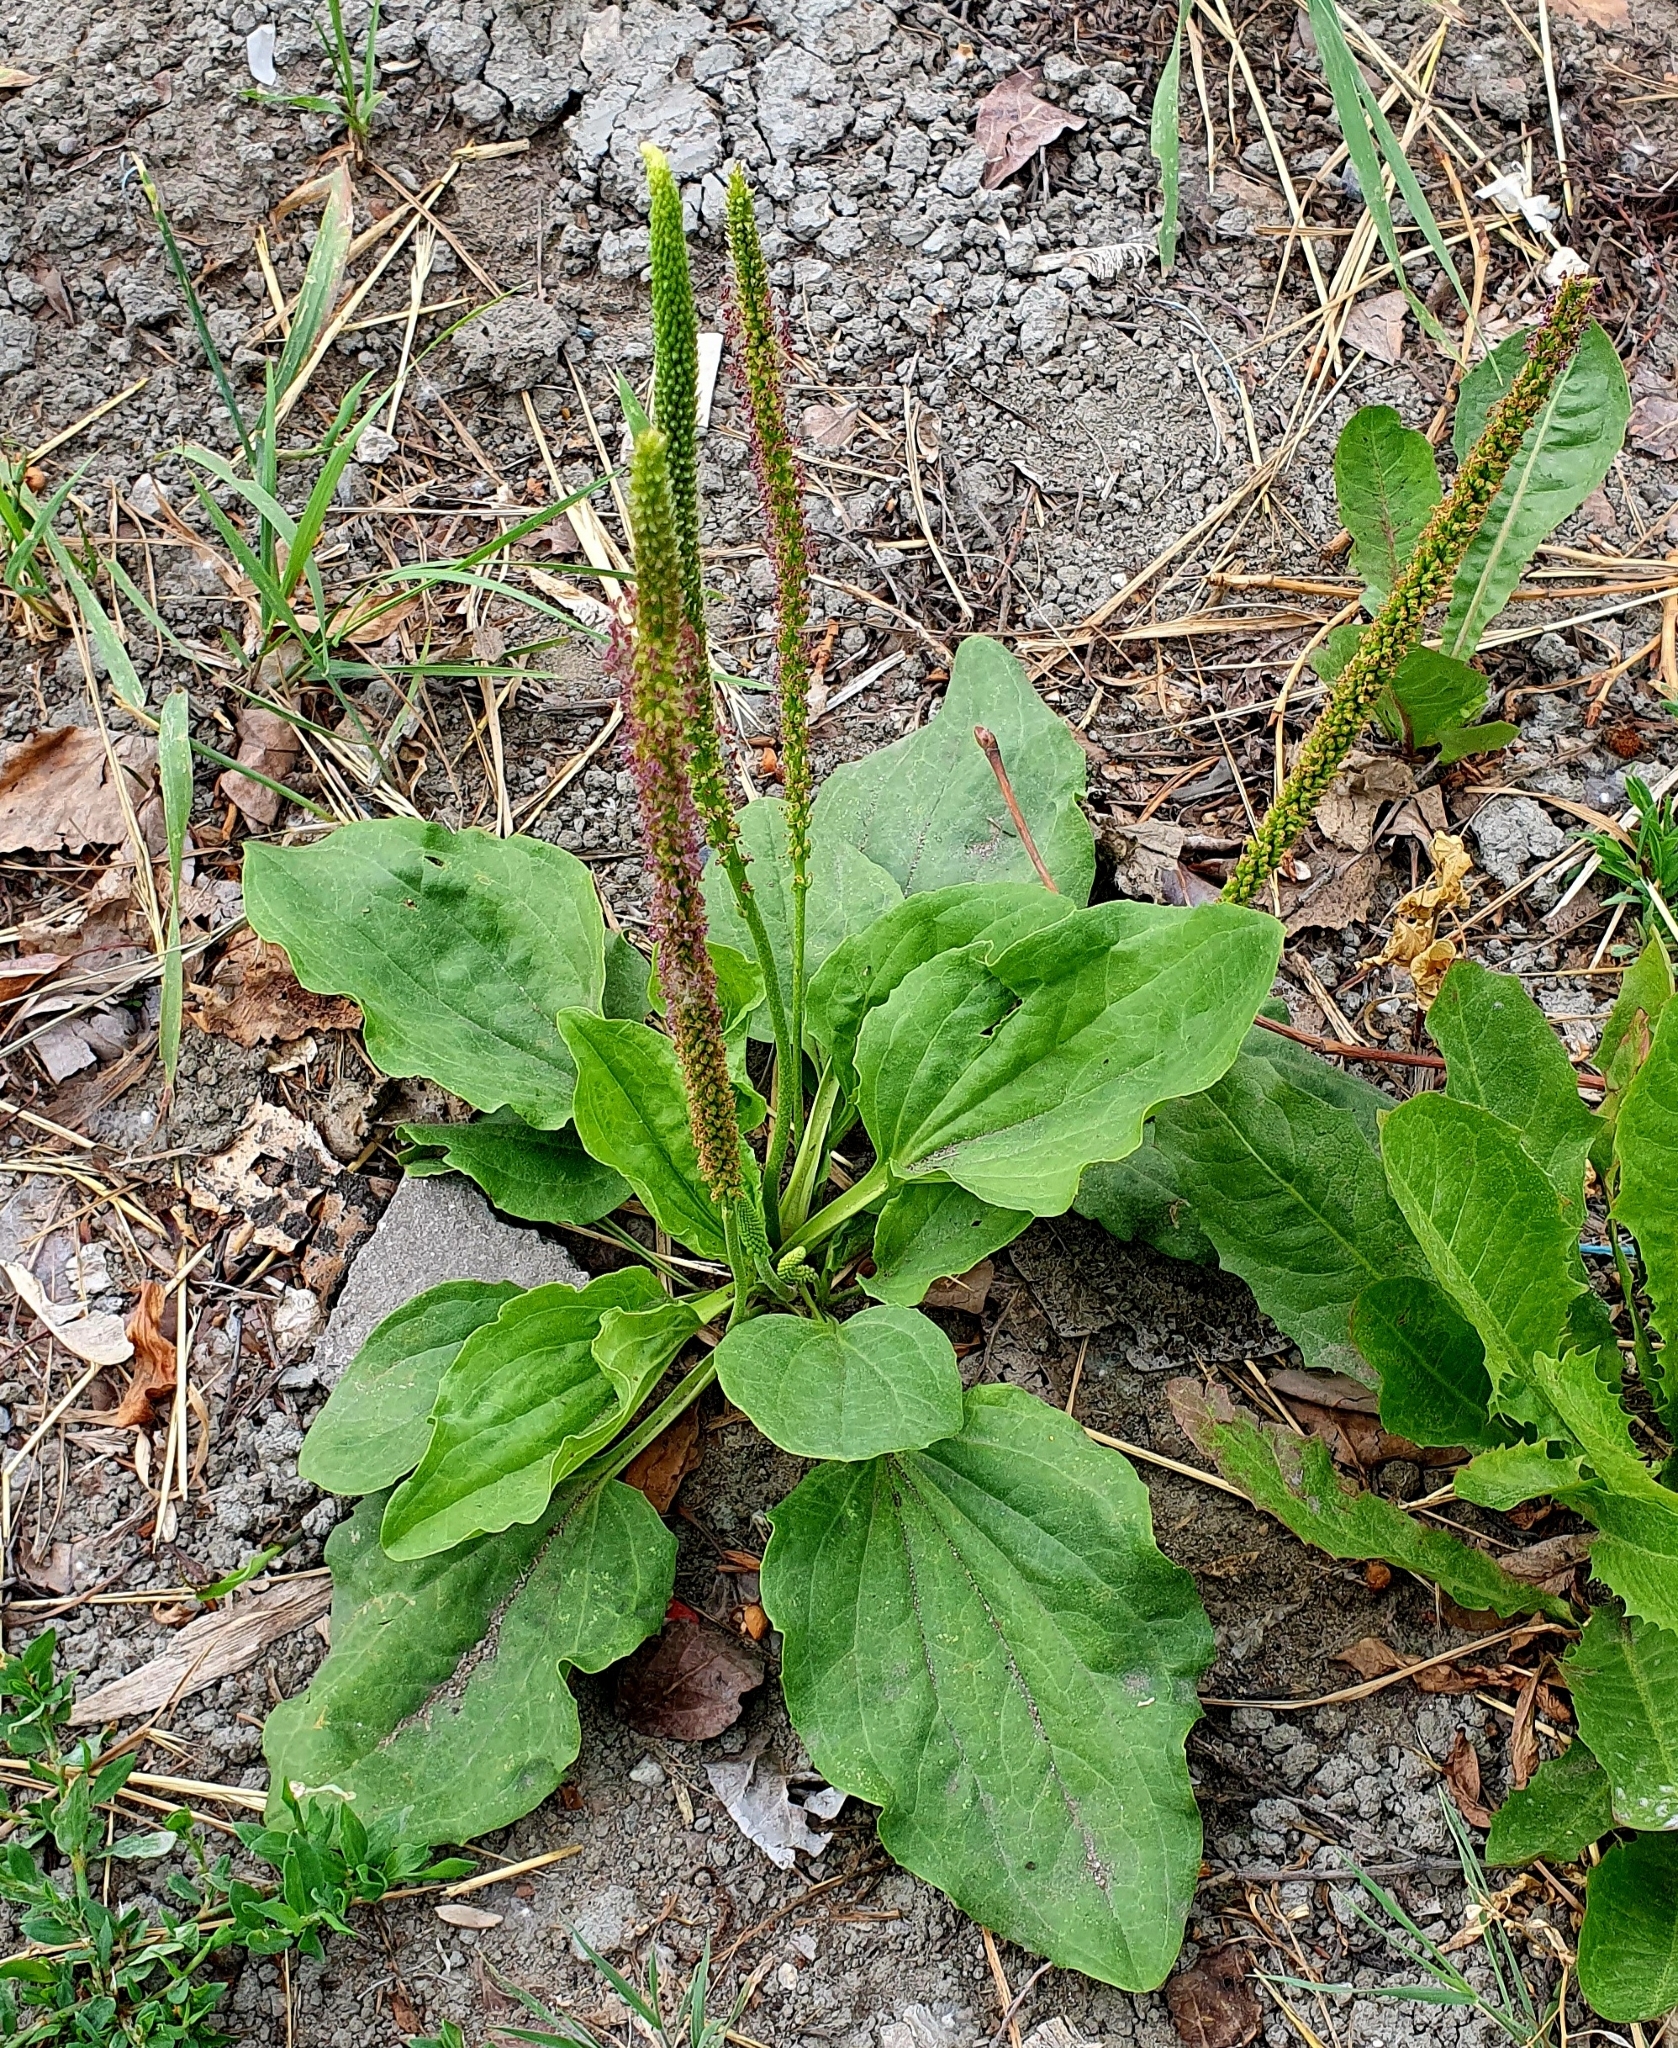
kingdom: Plantae
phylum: Tracheophyta
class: Magnoliopsida
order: Lamiales
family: Plantaginaceae
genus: Plantago
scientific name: Plantago major
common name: Common plantain
